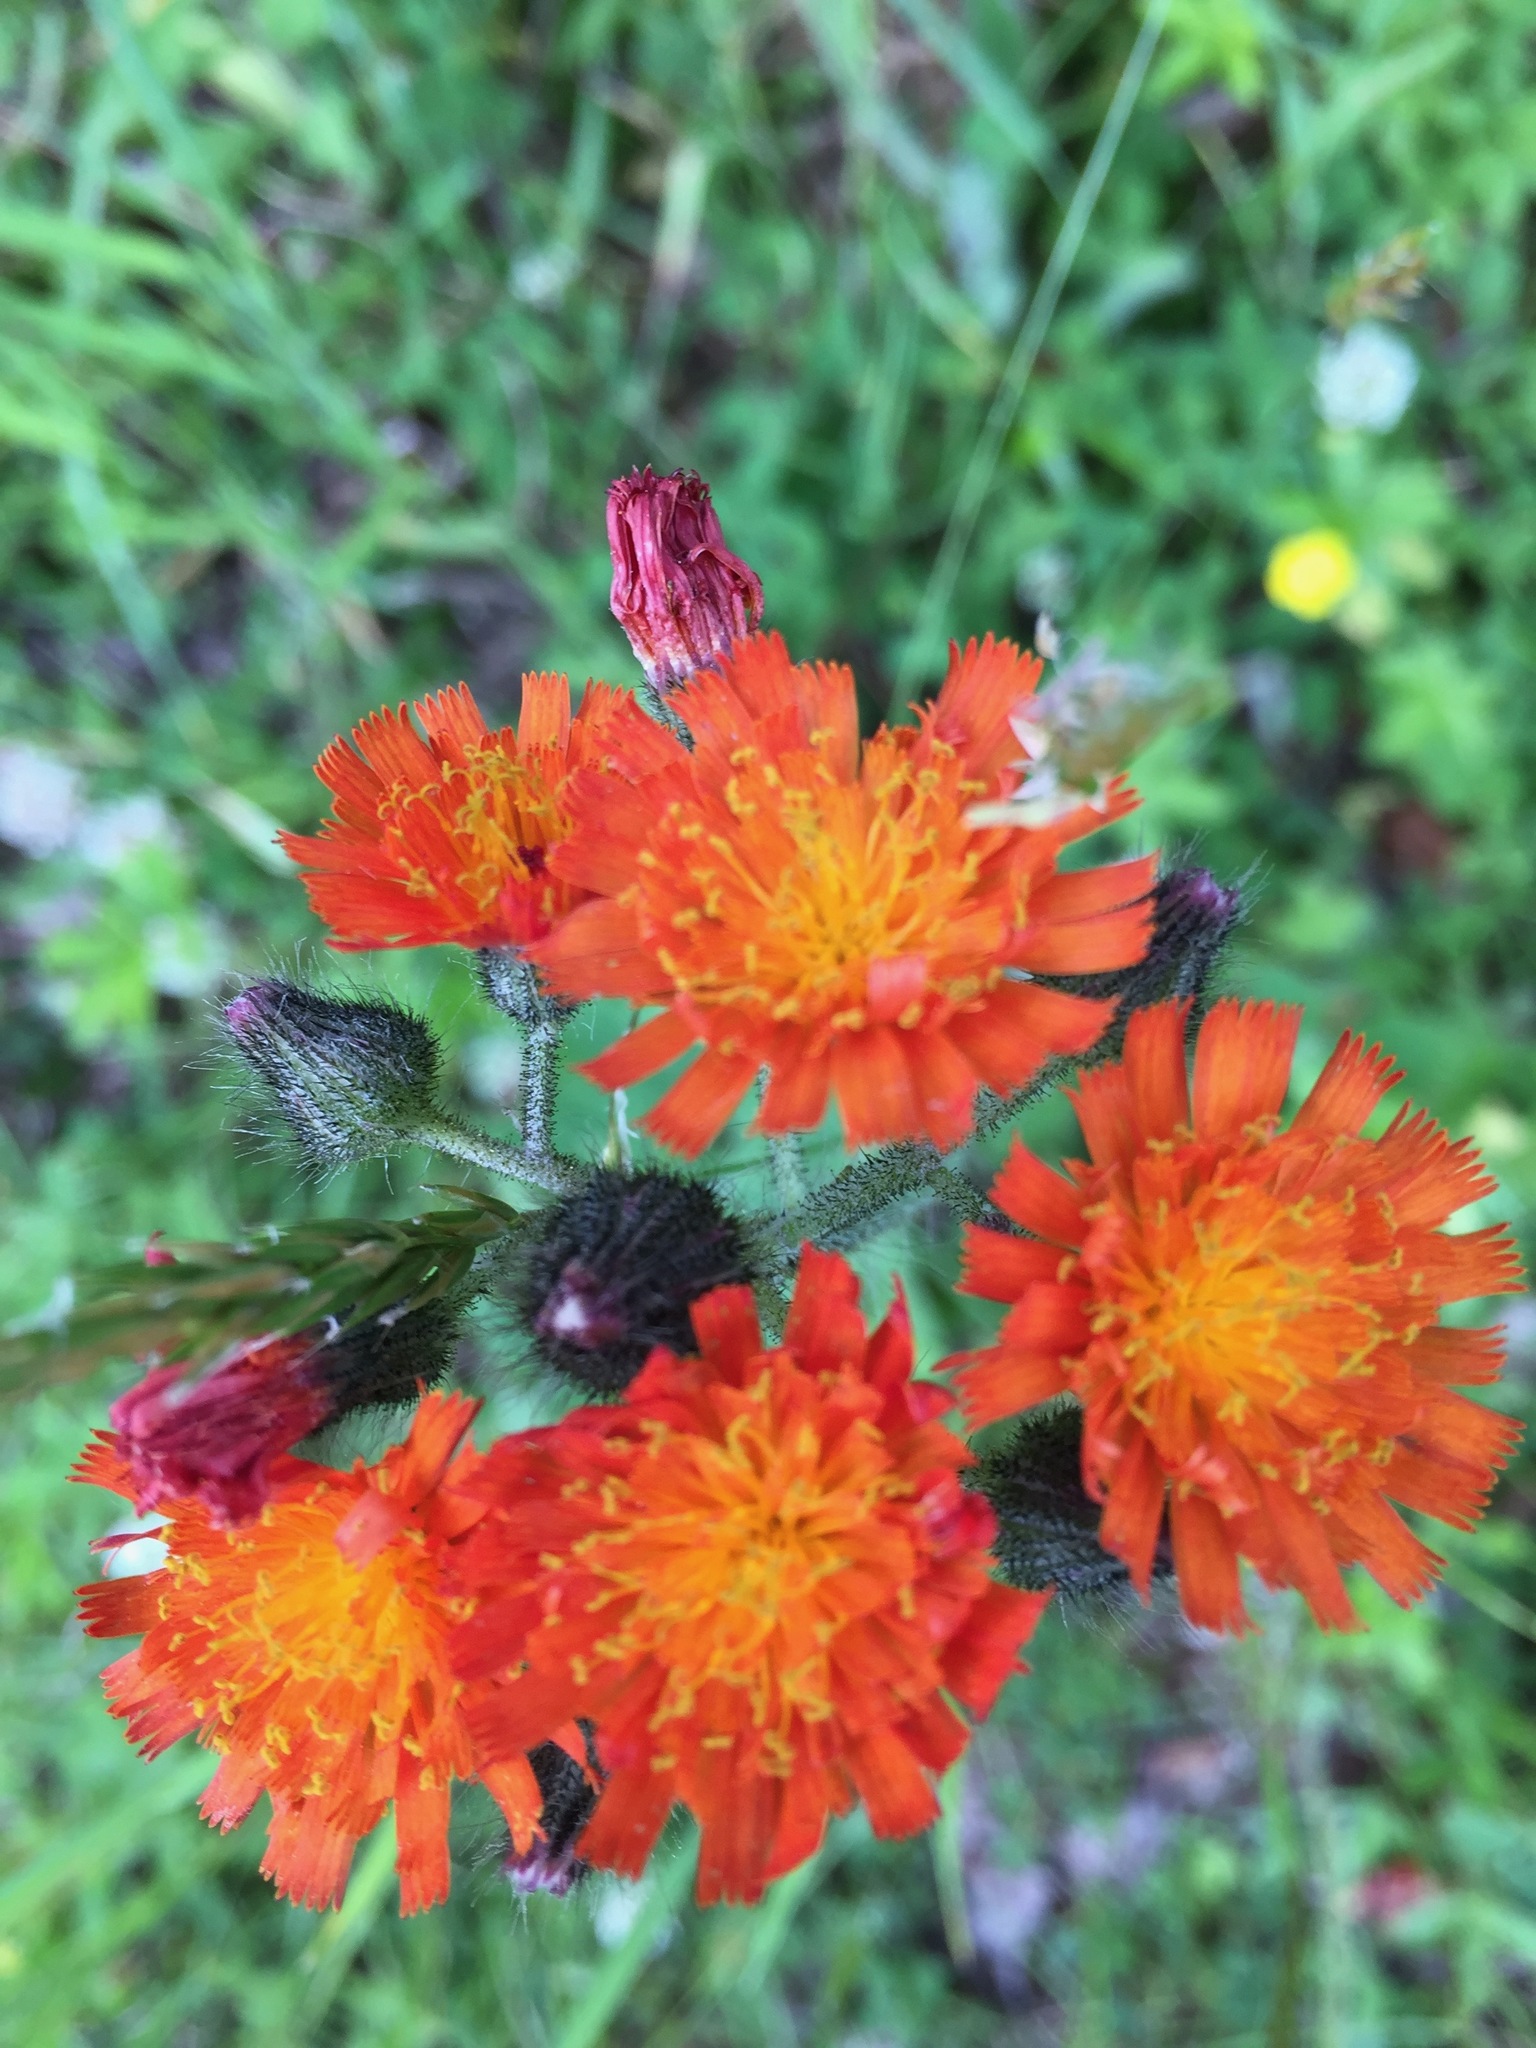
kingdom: Plantae
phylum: Tracheophyta
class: Magnoliopsida
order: Asterales
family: Asteraceae
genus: Pilosella
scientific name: Pilosella aurantiaca
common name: Fox-and-cubs
